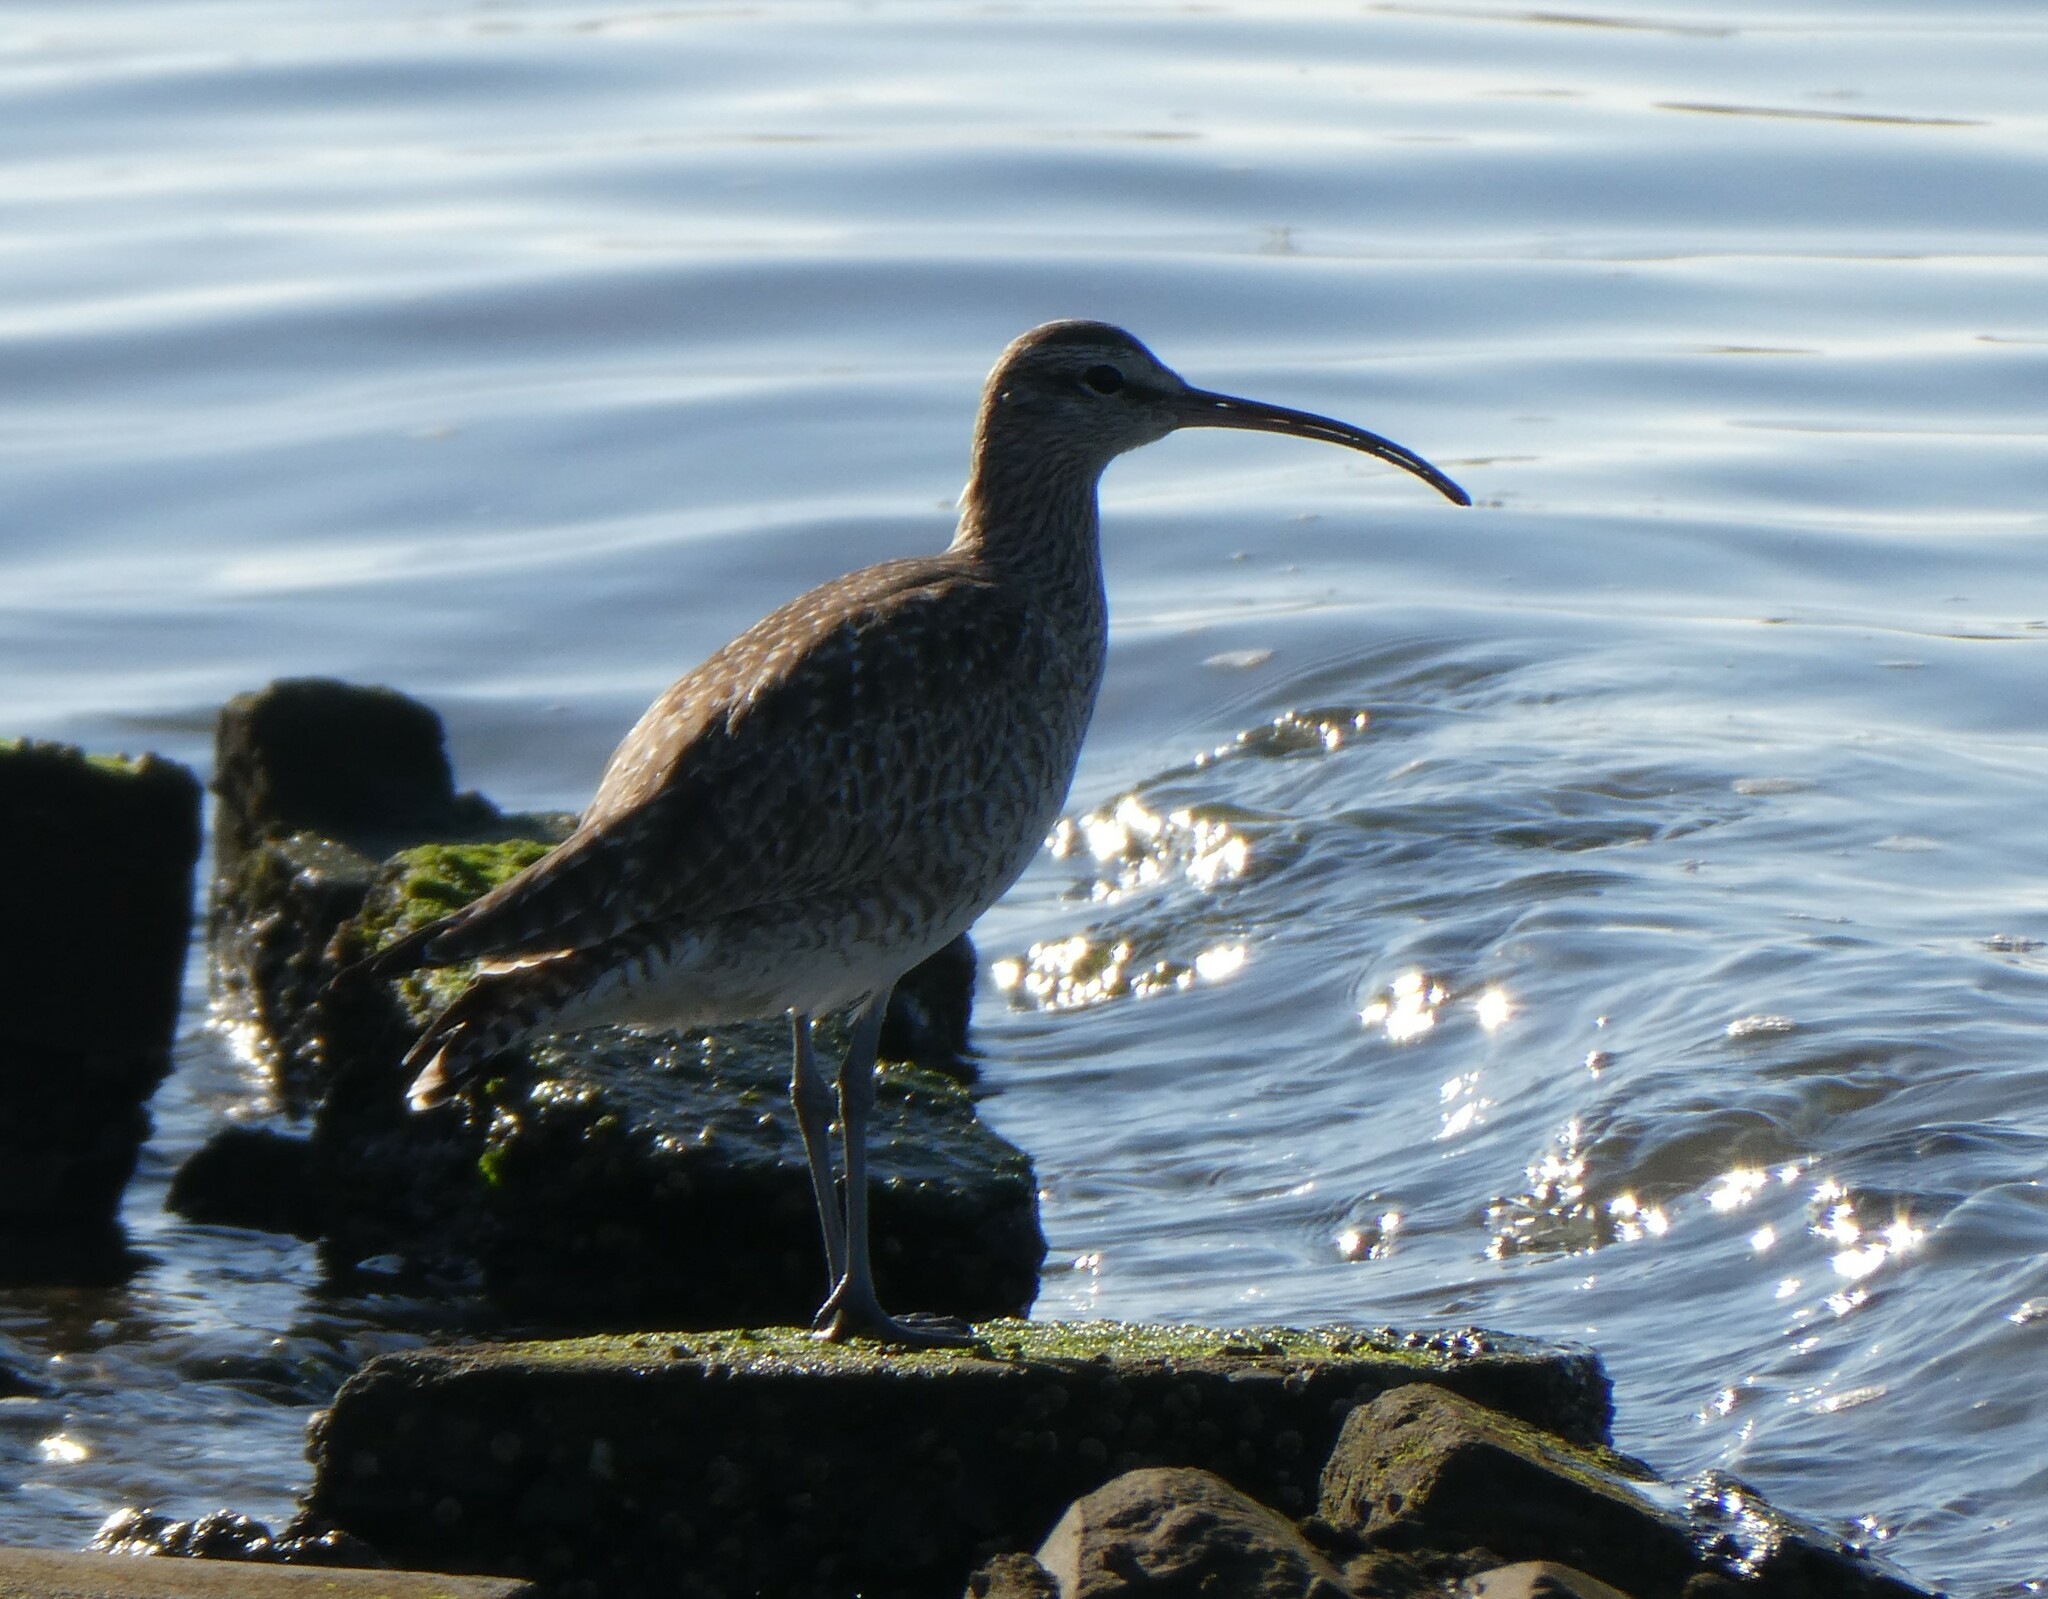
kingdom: Animalia
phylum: Chordata
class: Aves
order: Charadriiformes
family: Scolopacidae
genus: Numenius
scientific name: Numenius phaeopus
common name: Whimbrel
